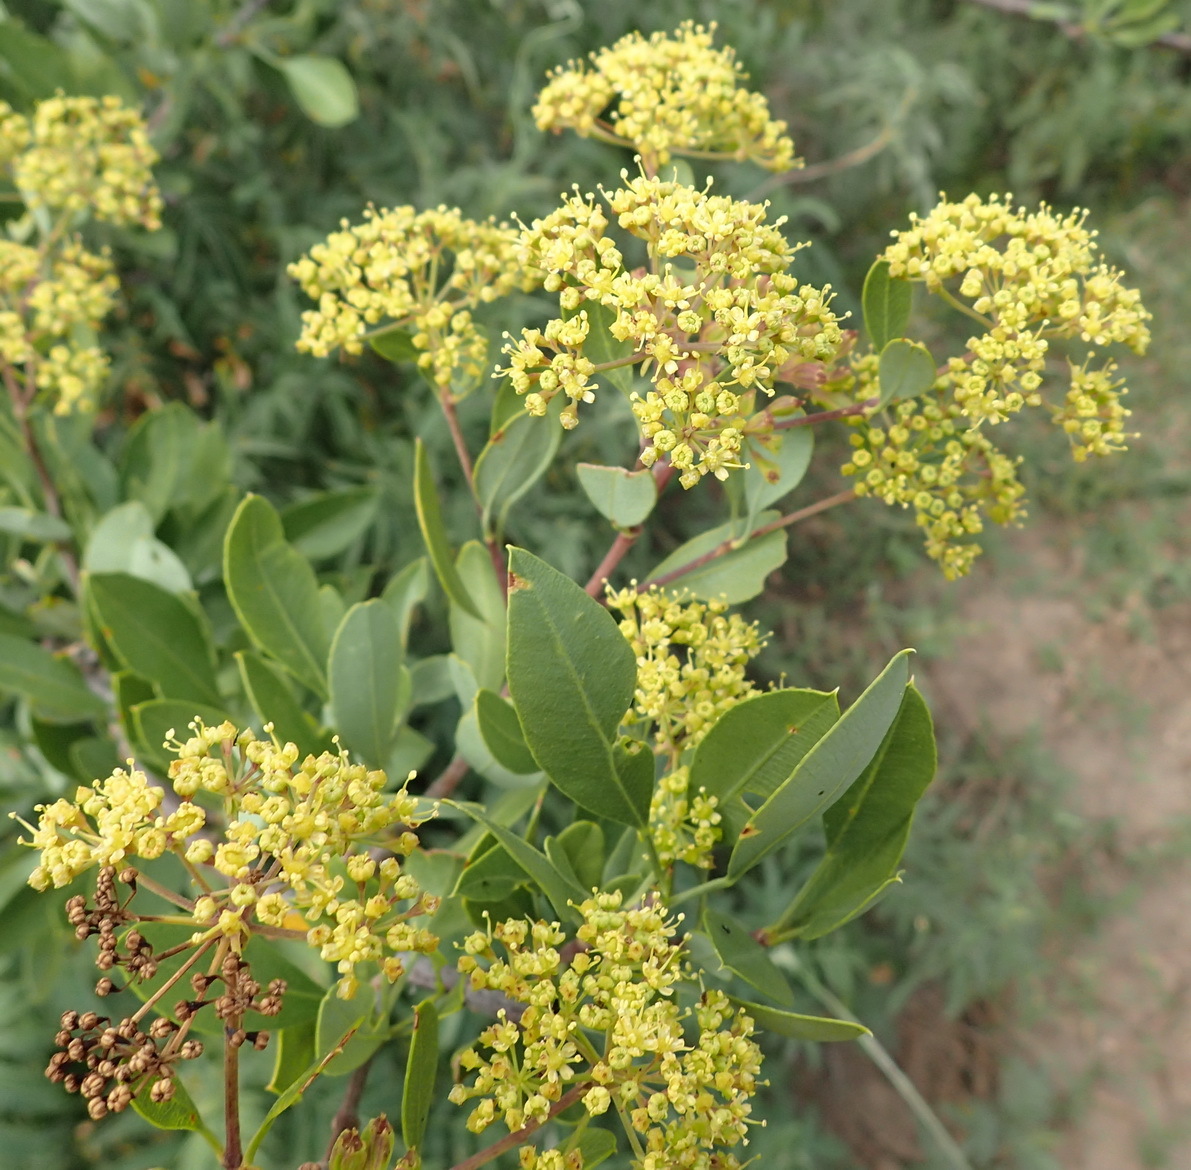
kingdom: Plantae
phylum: Tracheophyta
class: Magnoliopsida
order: Apiales
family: Apiaceae
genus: Heteromorpha
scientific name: Heteromorpha arborescens
